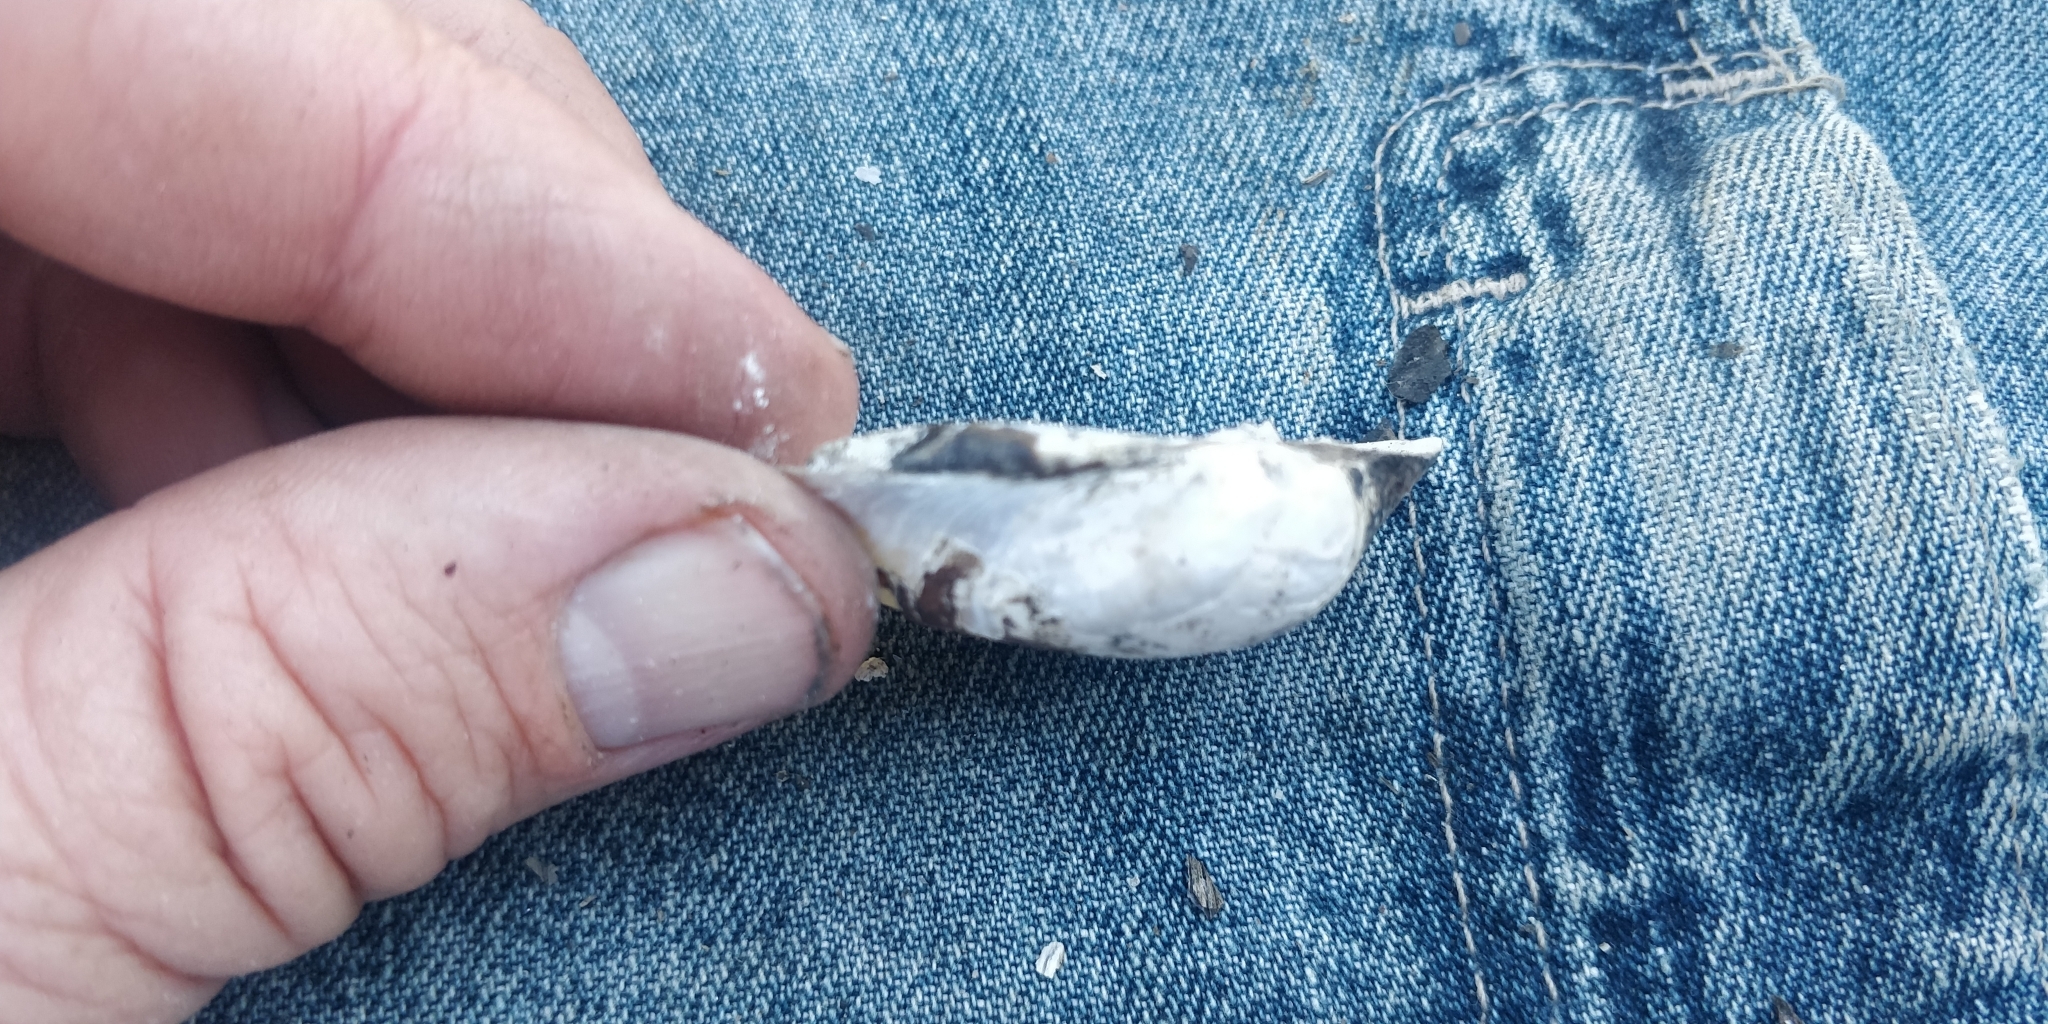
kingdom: Animalia
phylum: Mollusca
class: Bivalvia
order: Unionida
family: Unionidae
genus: Cyclonaias
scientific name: Cyclonaias pustulosa
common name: Pimpleback
